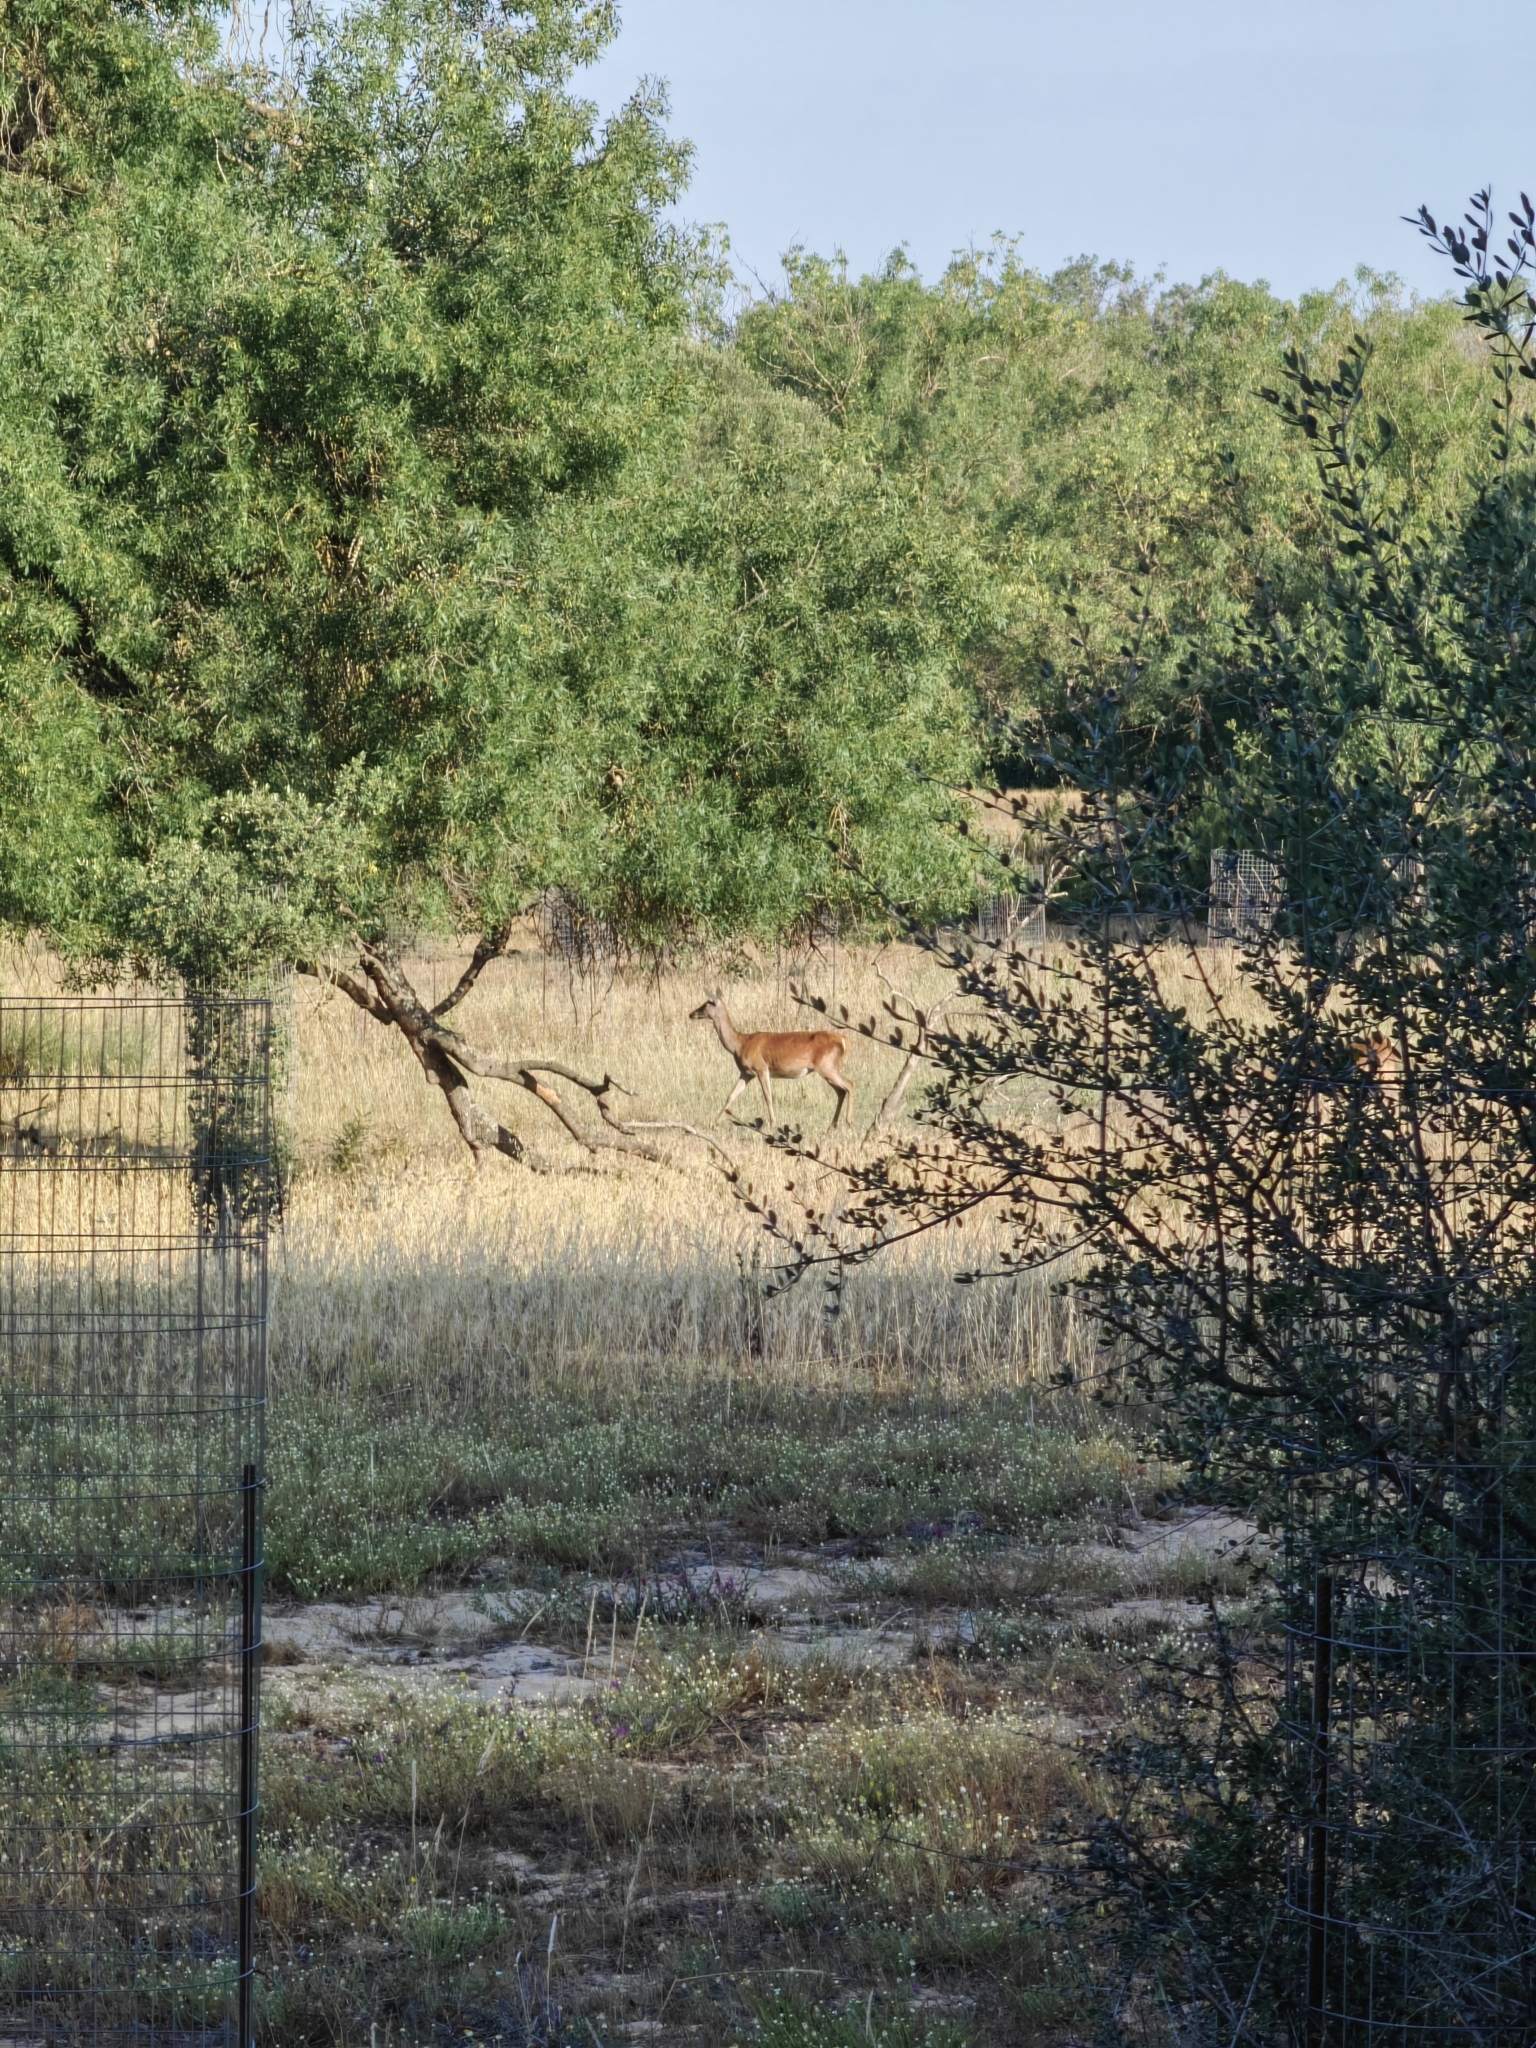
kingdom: Animalia
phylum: Chordata
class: Mammalia
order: Artiodactyla
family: Cervidae
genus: Cervus
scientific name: Cervus elaphus
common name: Red deer
